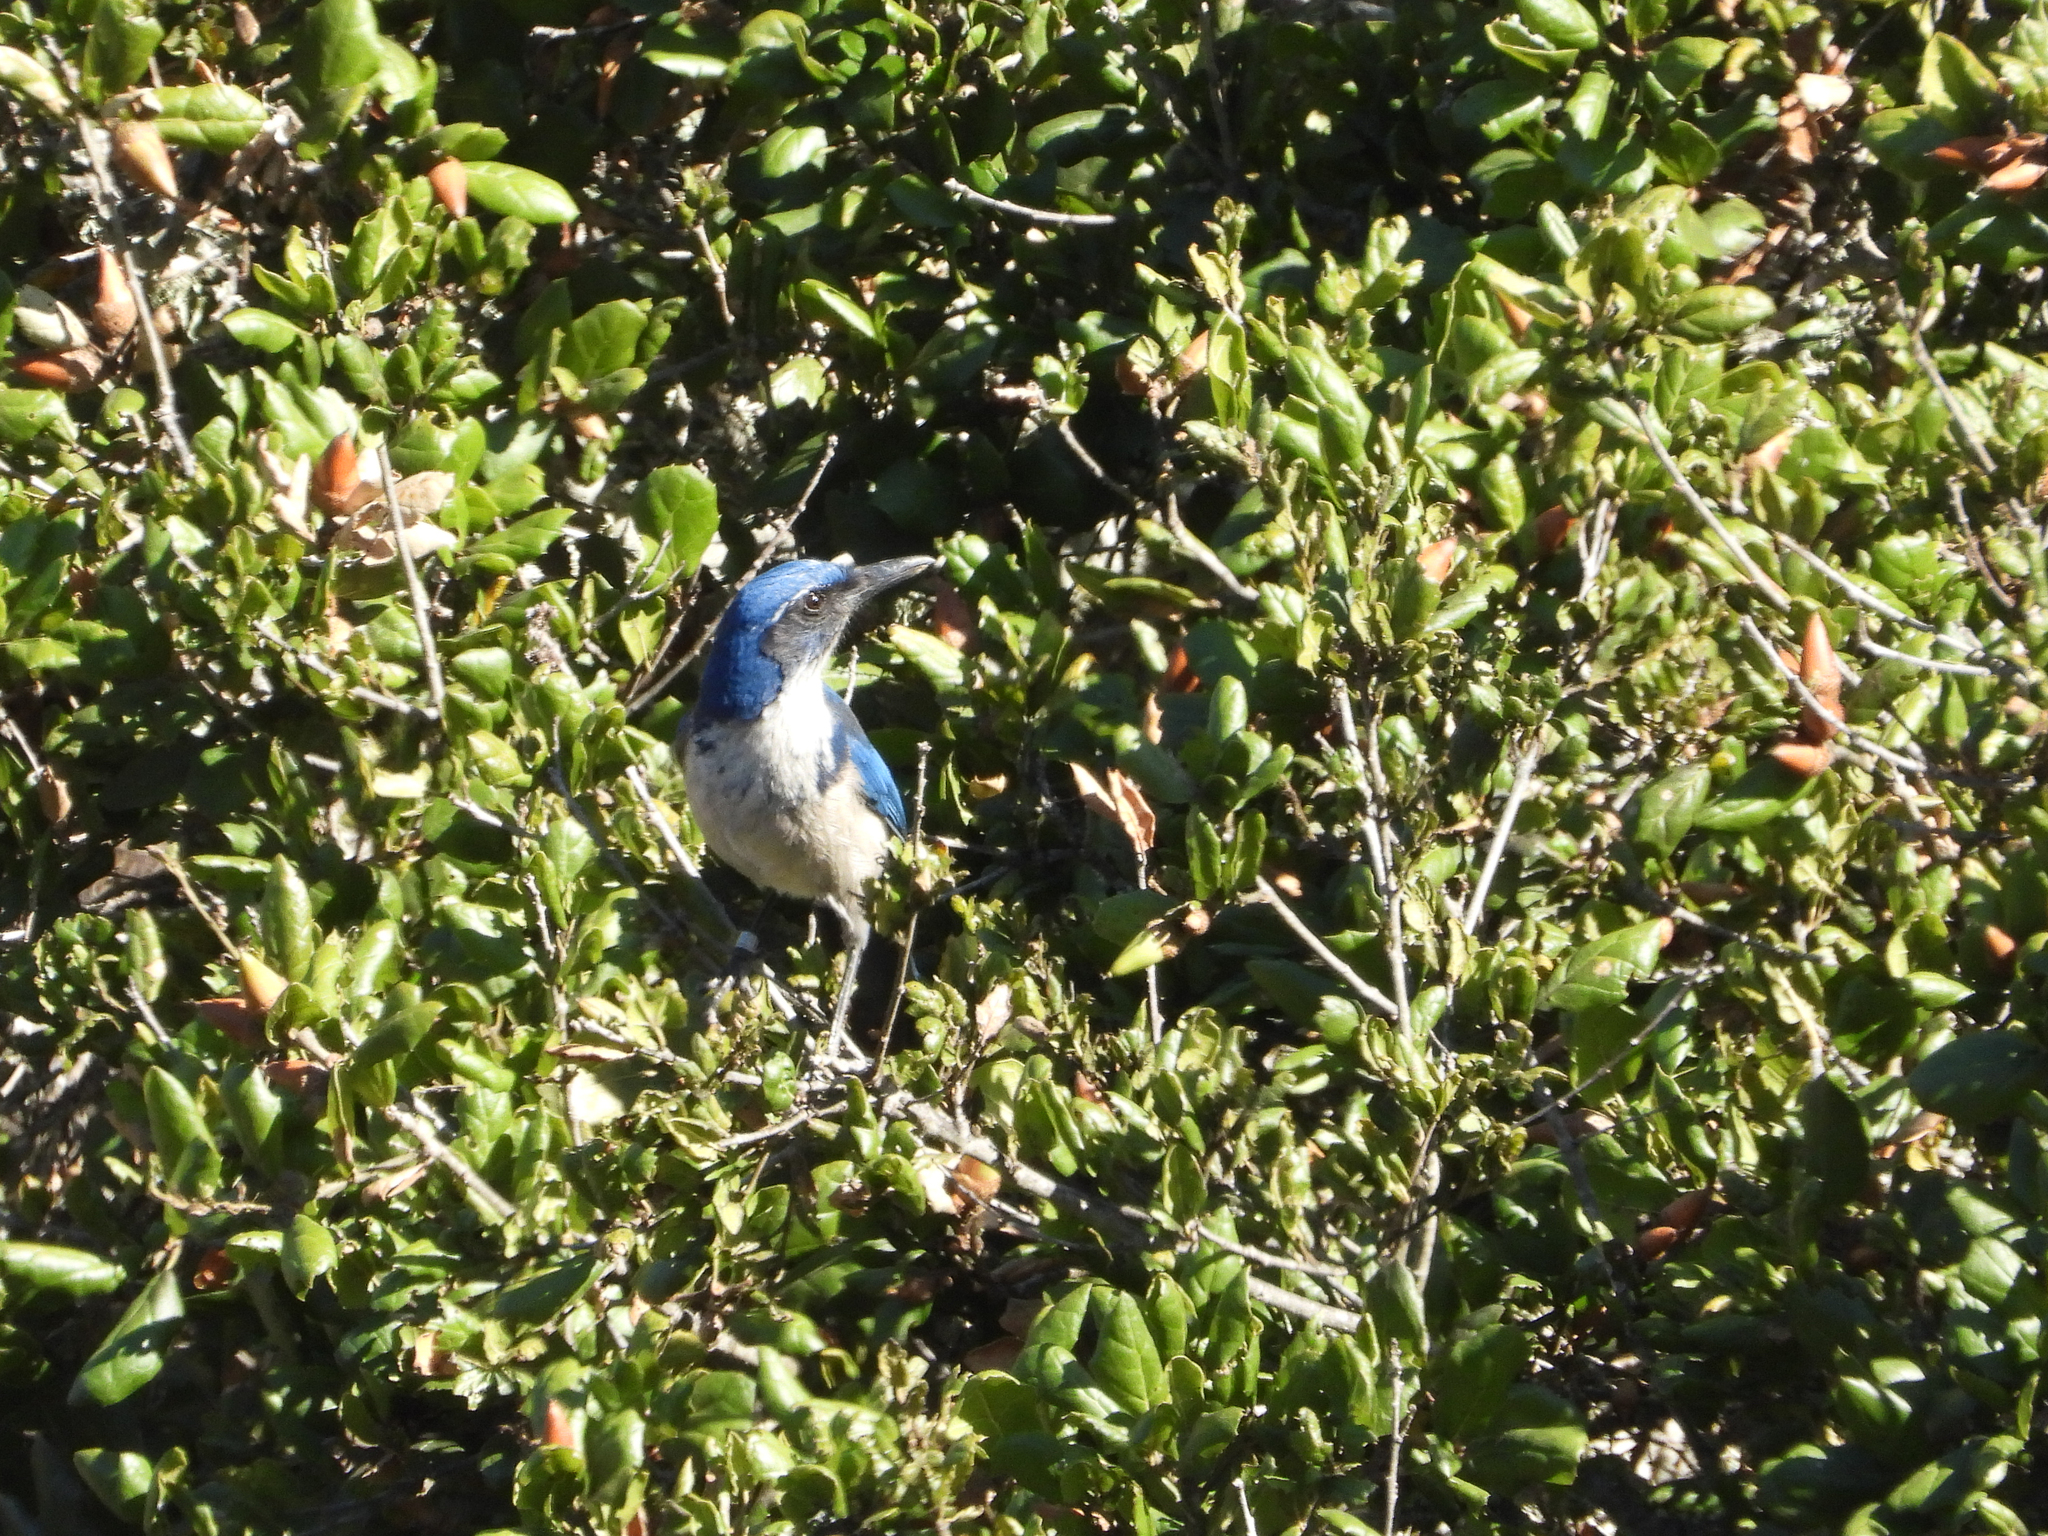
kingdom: Animalia
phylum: Chordata
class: Aves
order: Passeriformes
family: Corvidae
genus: Aphelocoma
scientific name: Aphelocoma insularis
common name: Island scrub-jay
